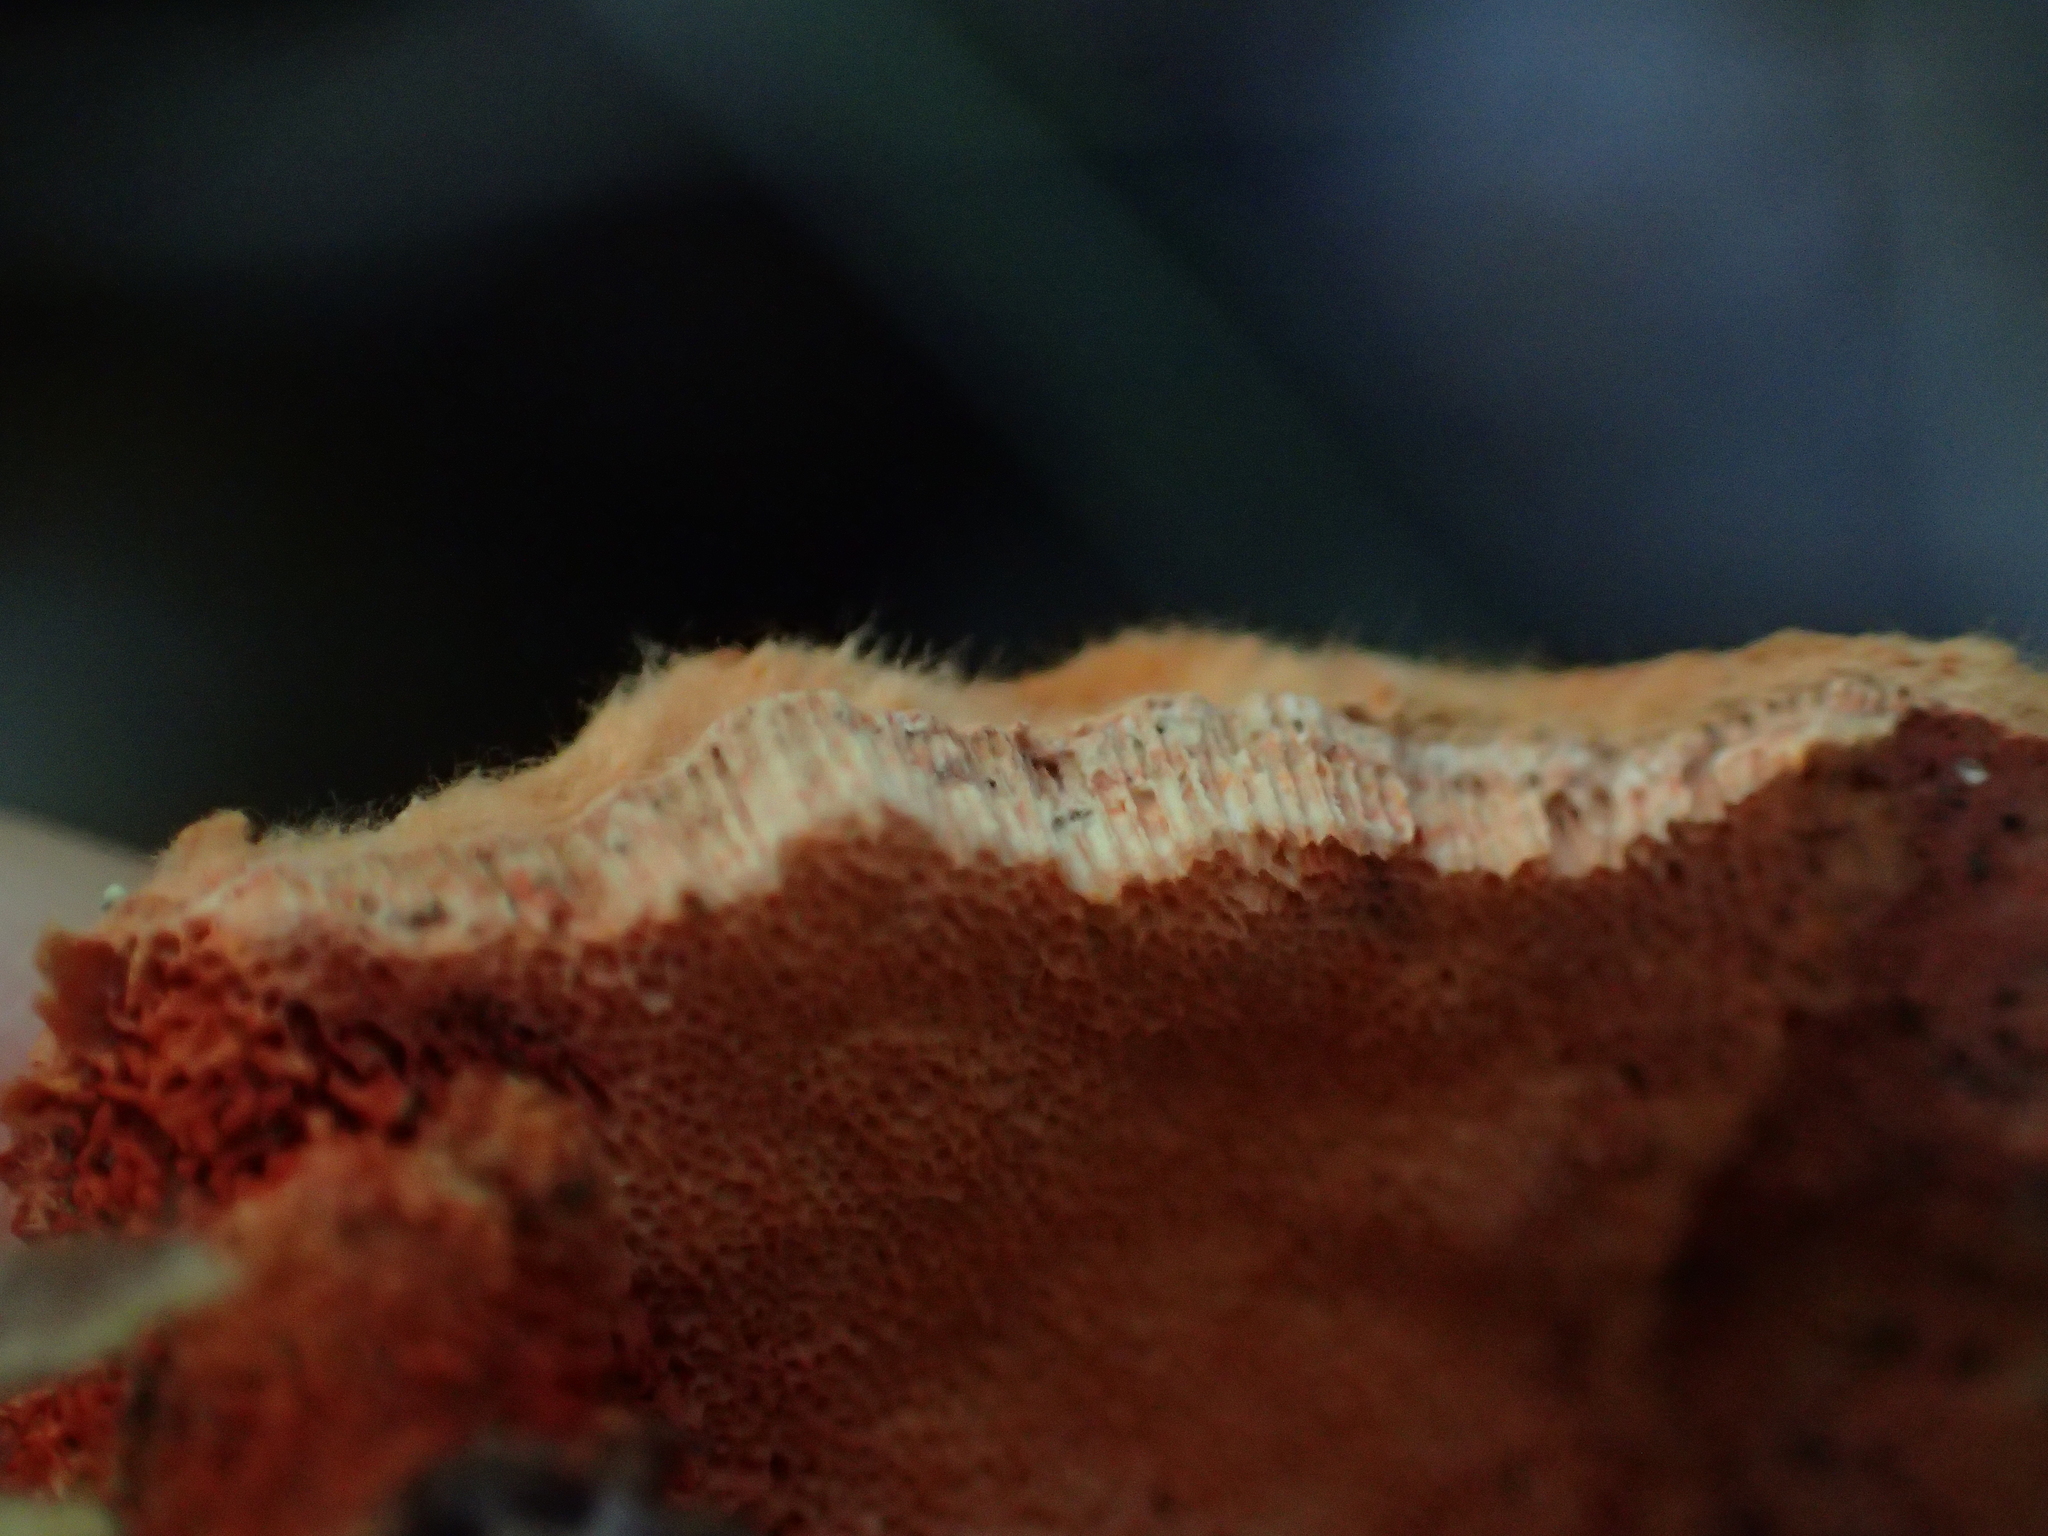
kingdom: Fungi
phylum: Basidiomycota
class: Agaricomycetes
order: Polyporales
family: Polyporaceae
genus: Trametes
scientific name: Trametes coccinea
